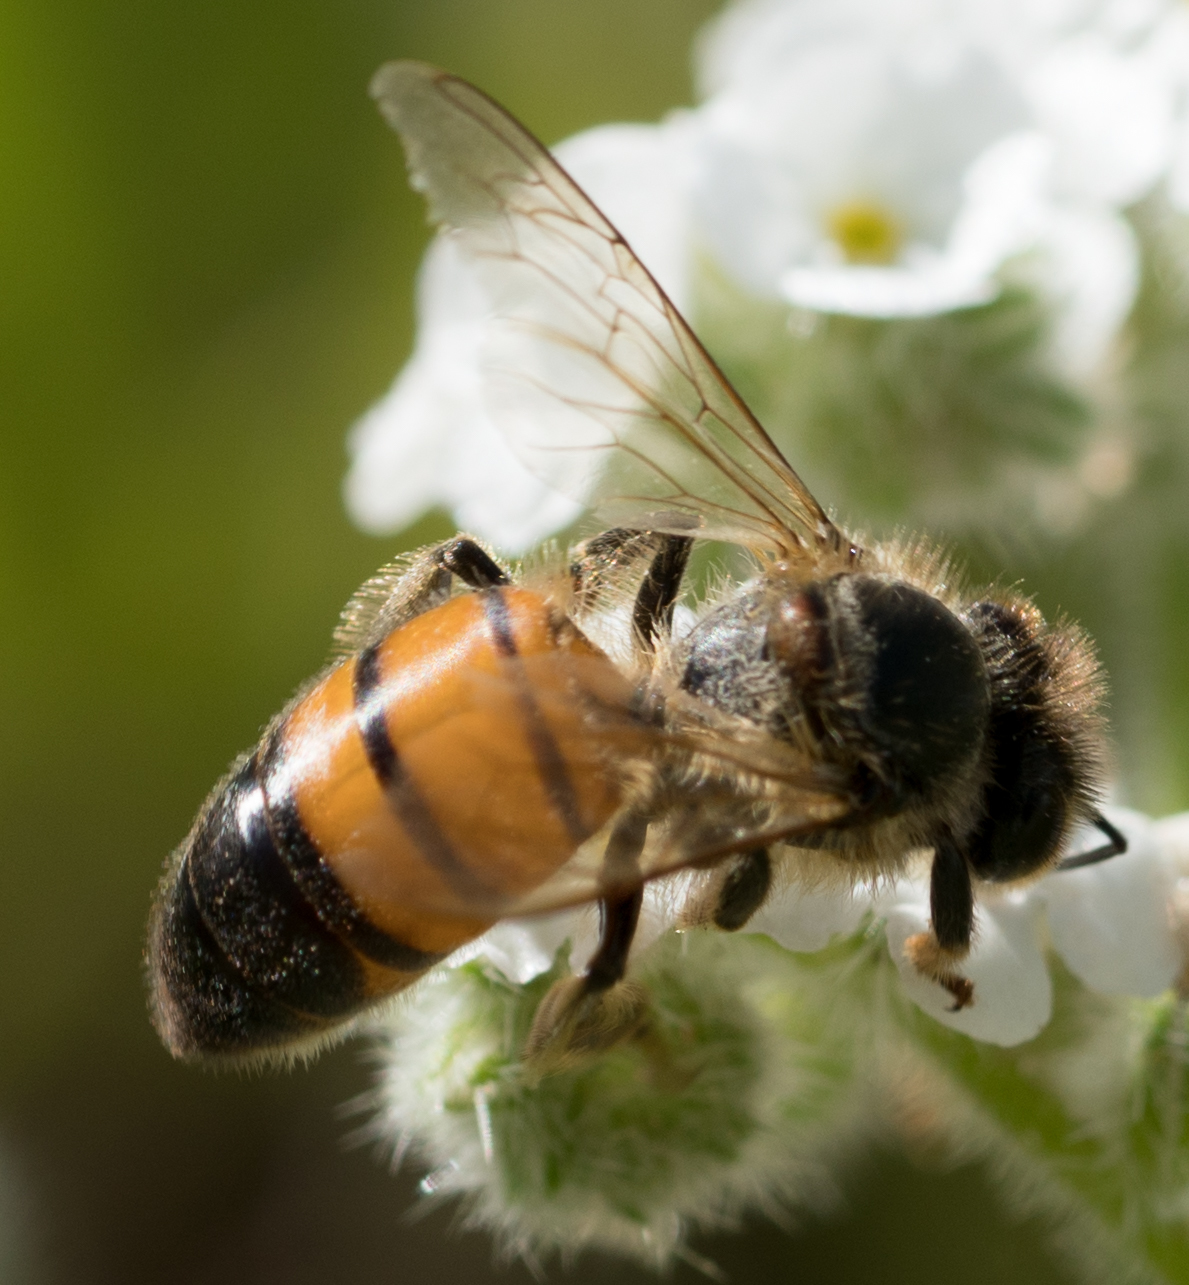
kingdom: Animalia
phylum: Arthropoda
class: Insecta
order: Hymenoptera
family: Apidae
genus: Apis
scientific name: Apis mellifera
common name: Honey bee
